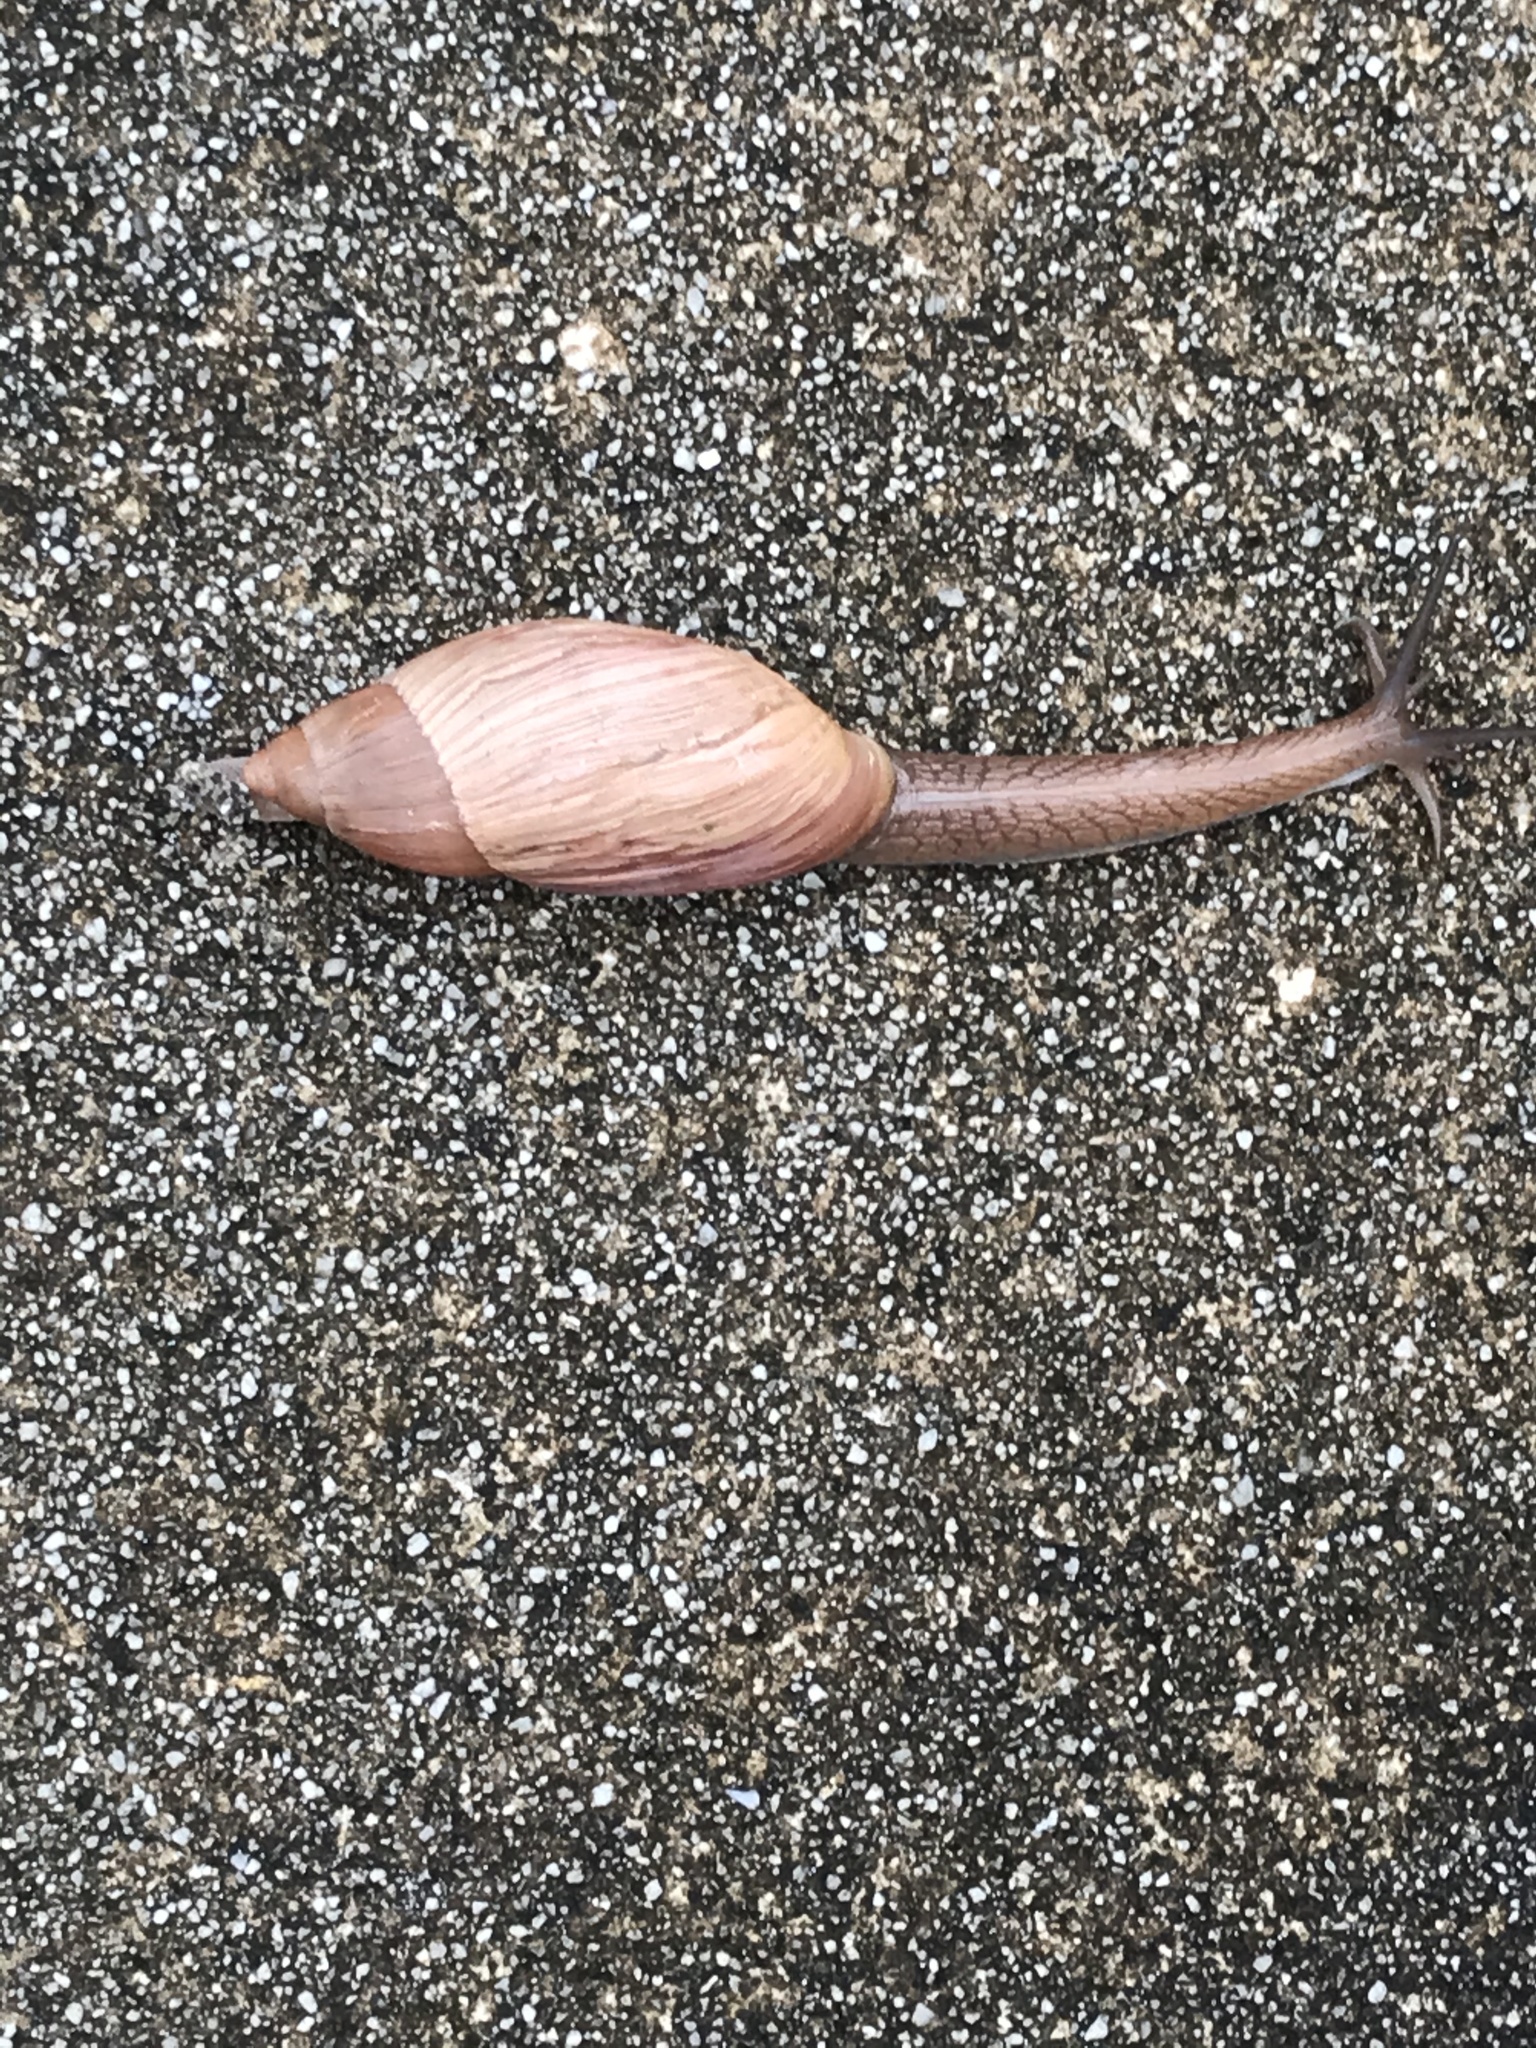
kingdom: Animalia
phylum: Mollusca
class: Gastropoda
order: Stylommatophora
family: Spiraxidae
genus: Euglandina
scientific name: Euglandina rosea
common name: Rosy wolfsnail
